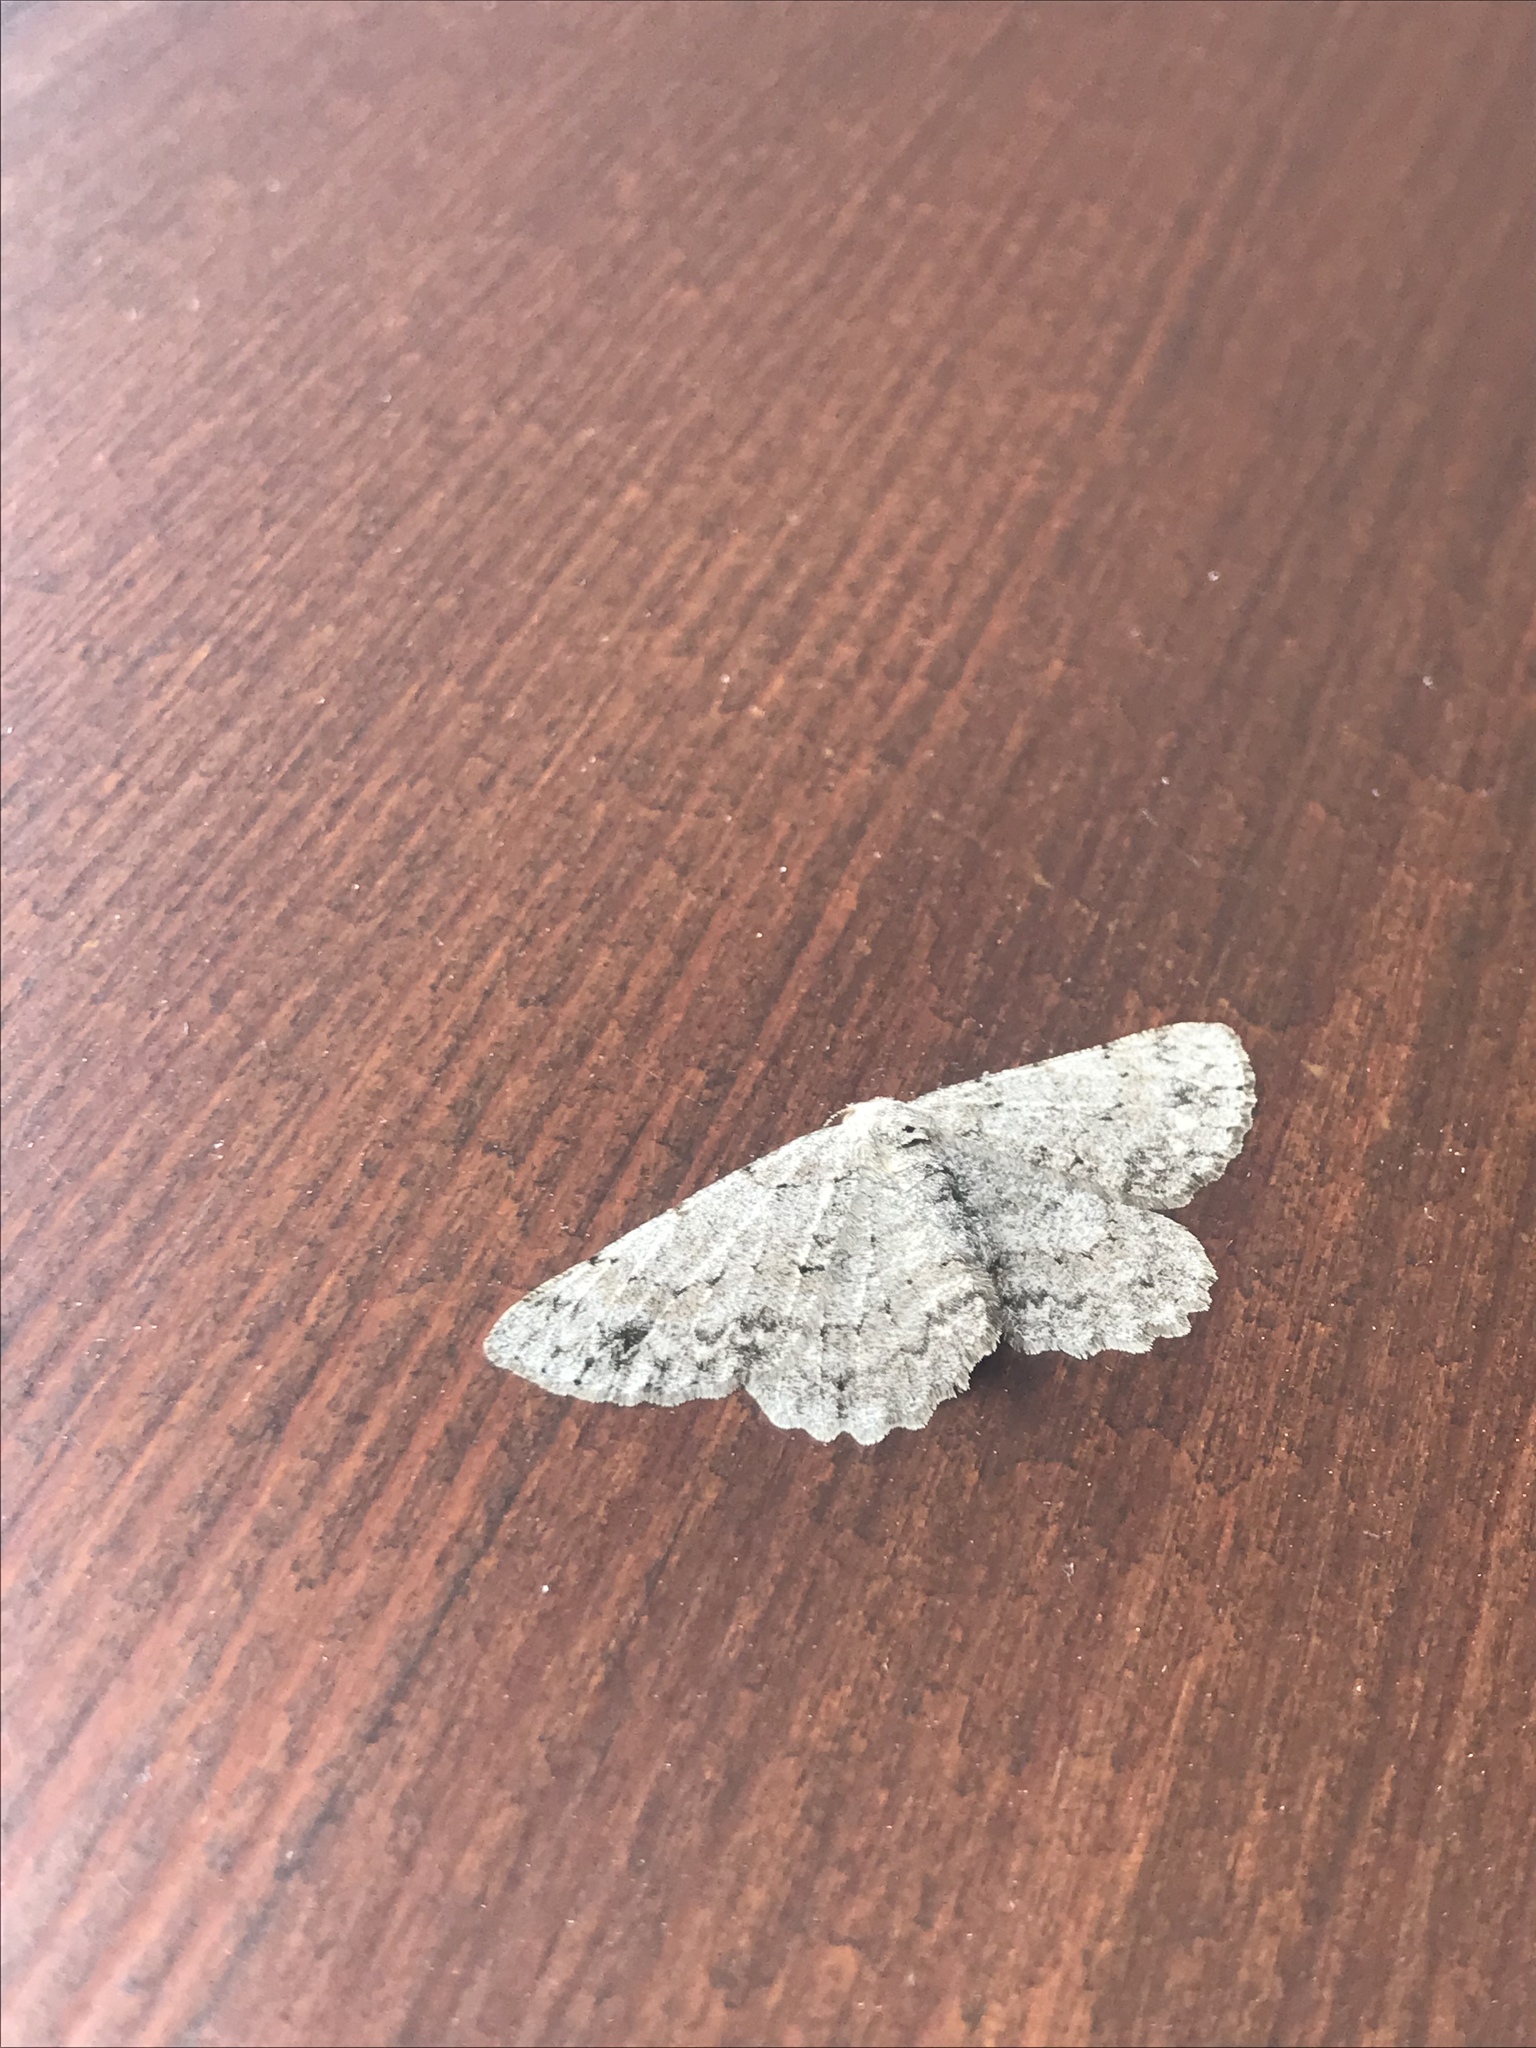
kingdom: Animalia
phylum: Arthropoda
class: Insecta
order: Lepidoptera
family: Geometridae
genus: Hypomecis
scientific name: Hypomecis punctinalis
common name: Pale oak beauty
